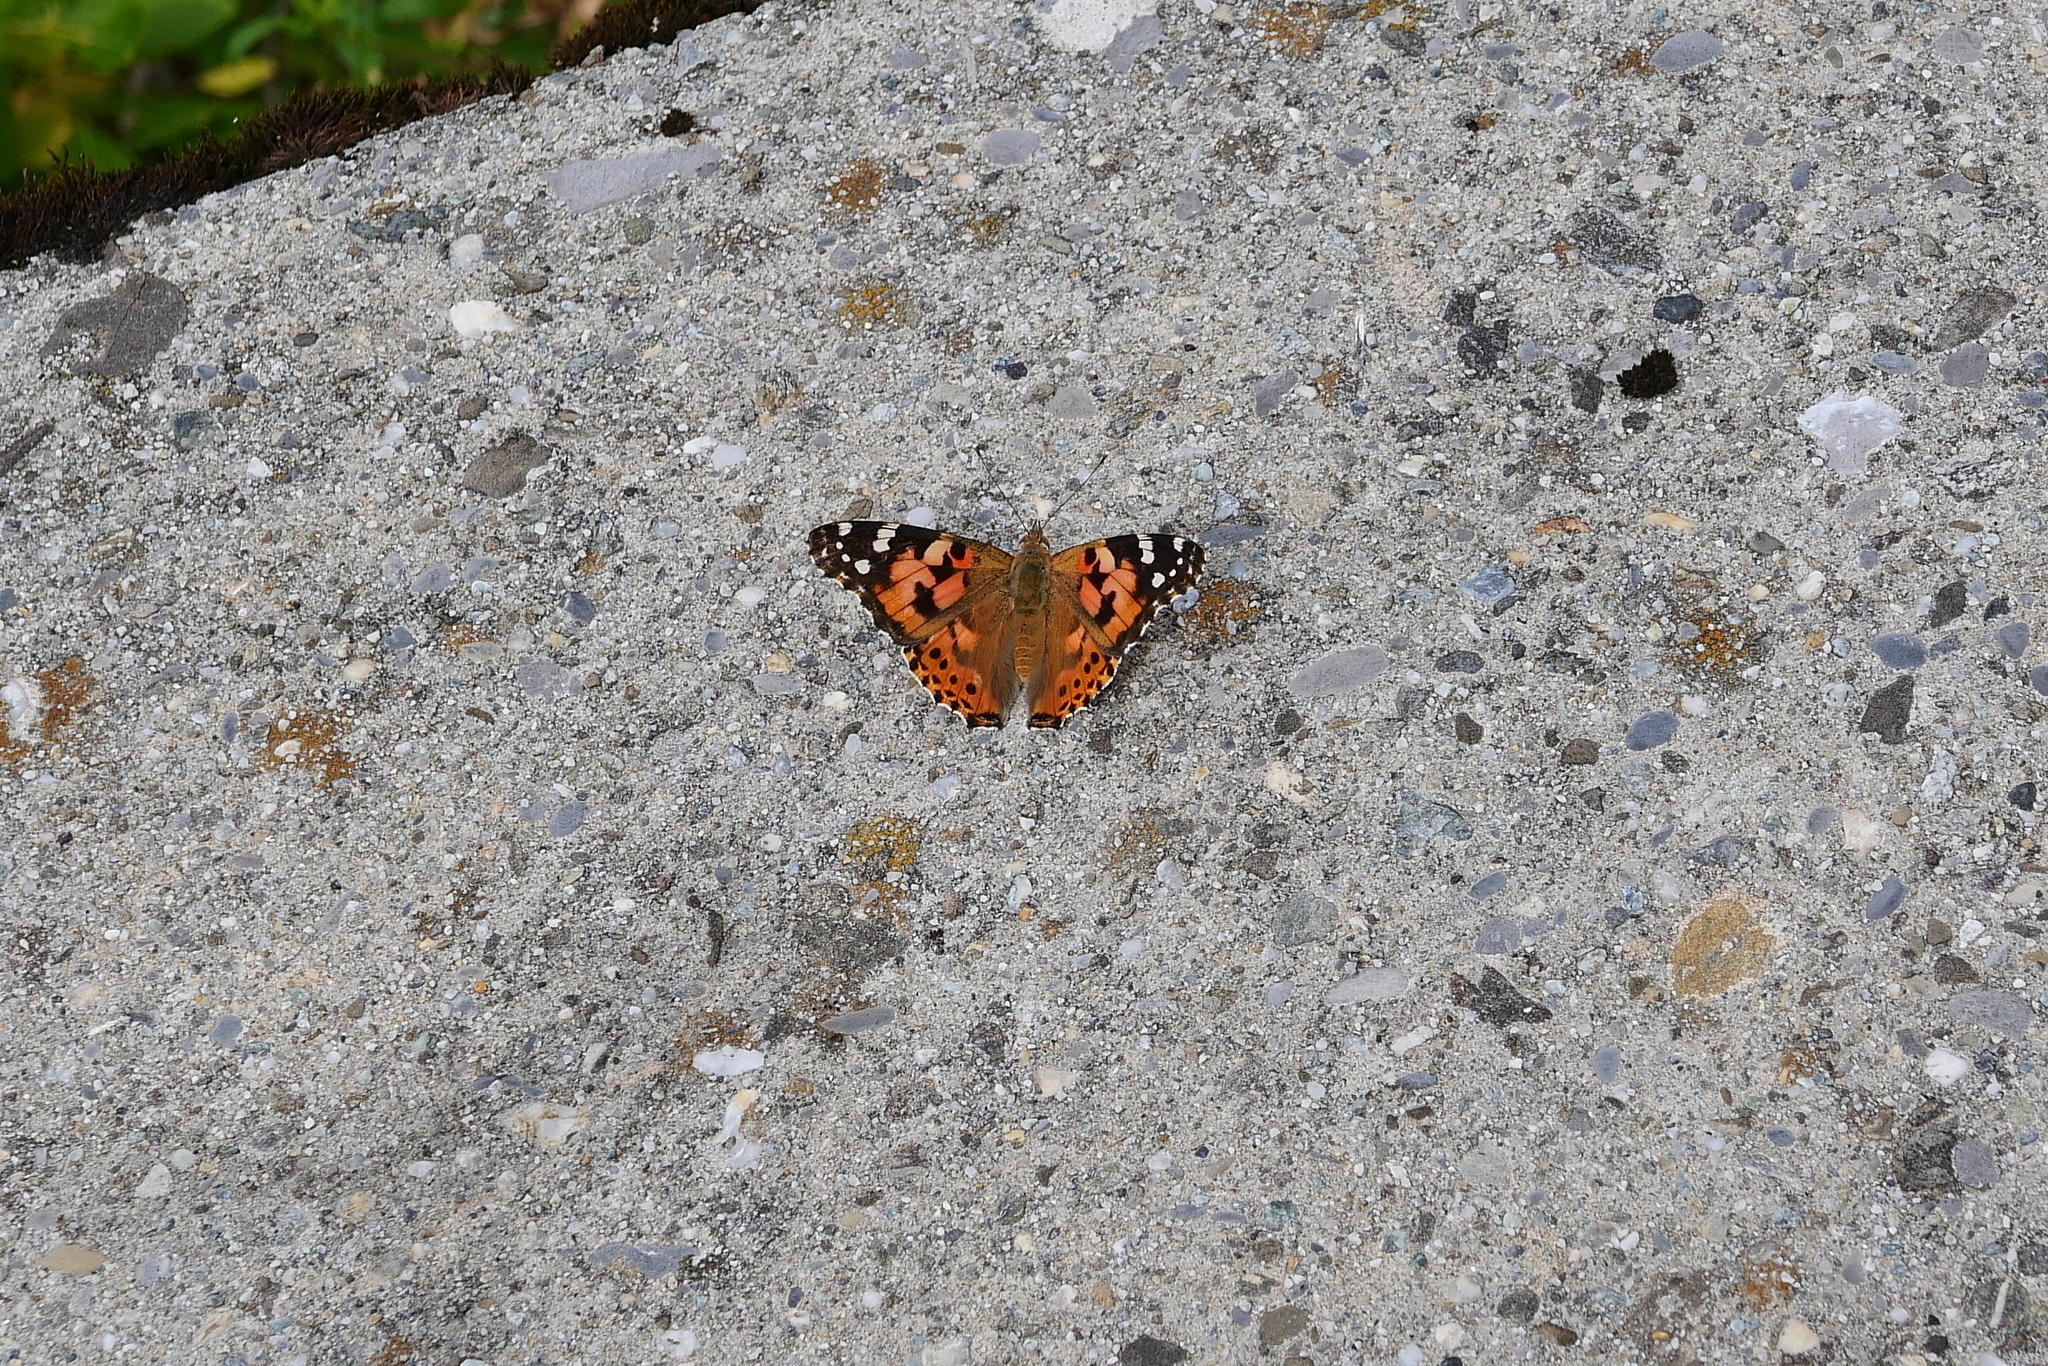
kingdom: Animalia
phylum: Arthropoda
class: Insecta
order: Lepidoptera
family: Nymphalidae
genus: Vanessa
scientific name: Vanessa cardui
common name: Painted lady
